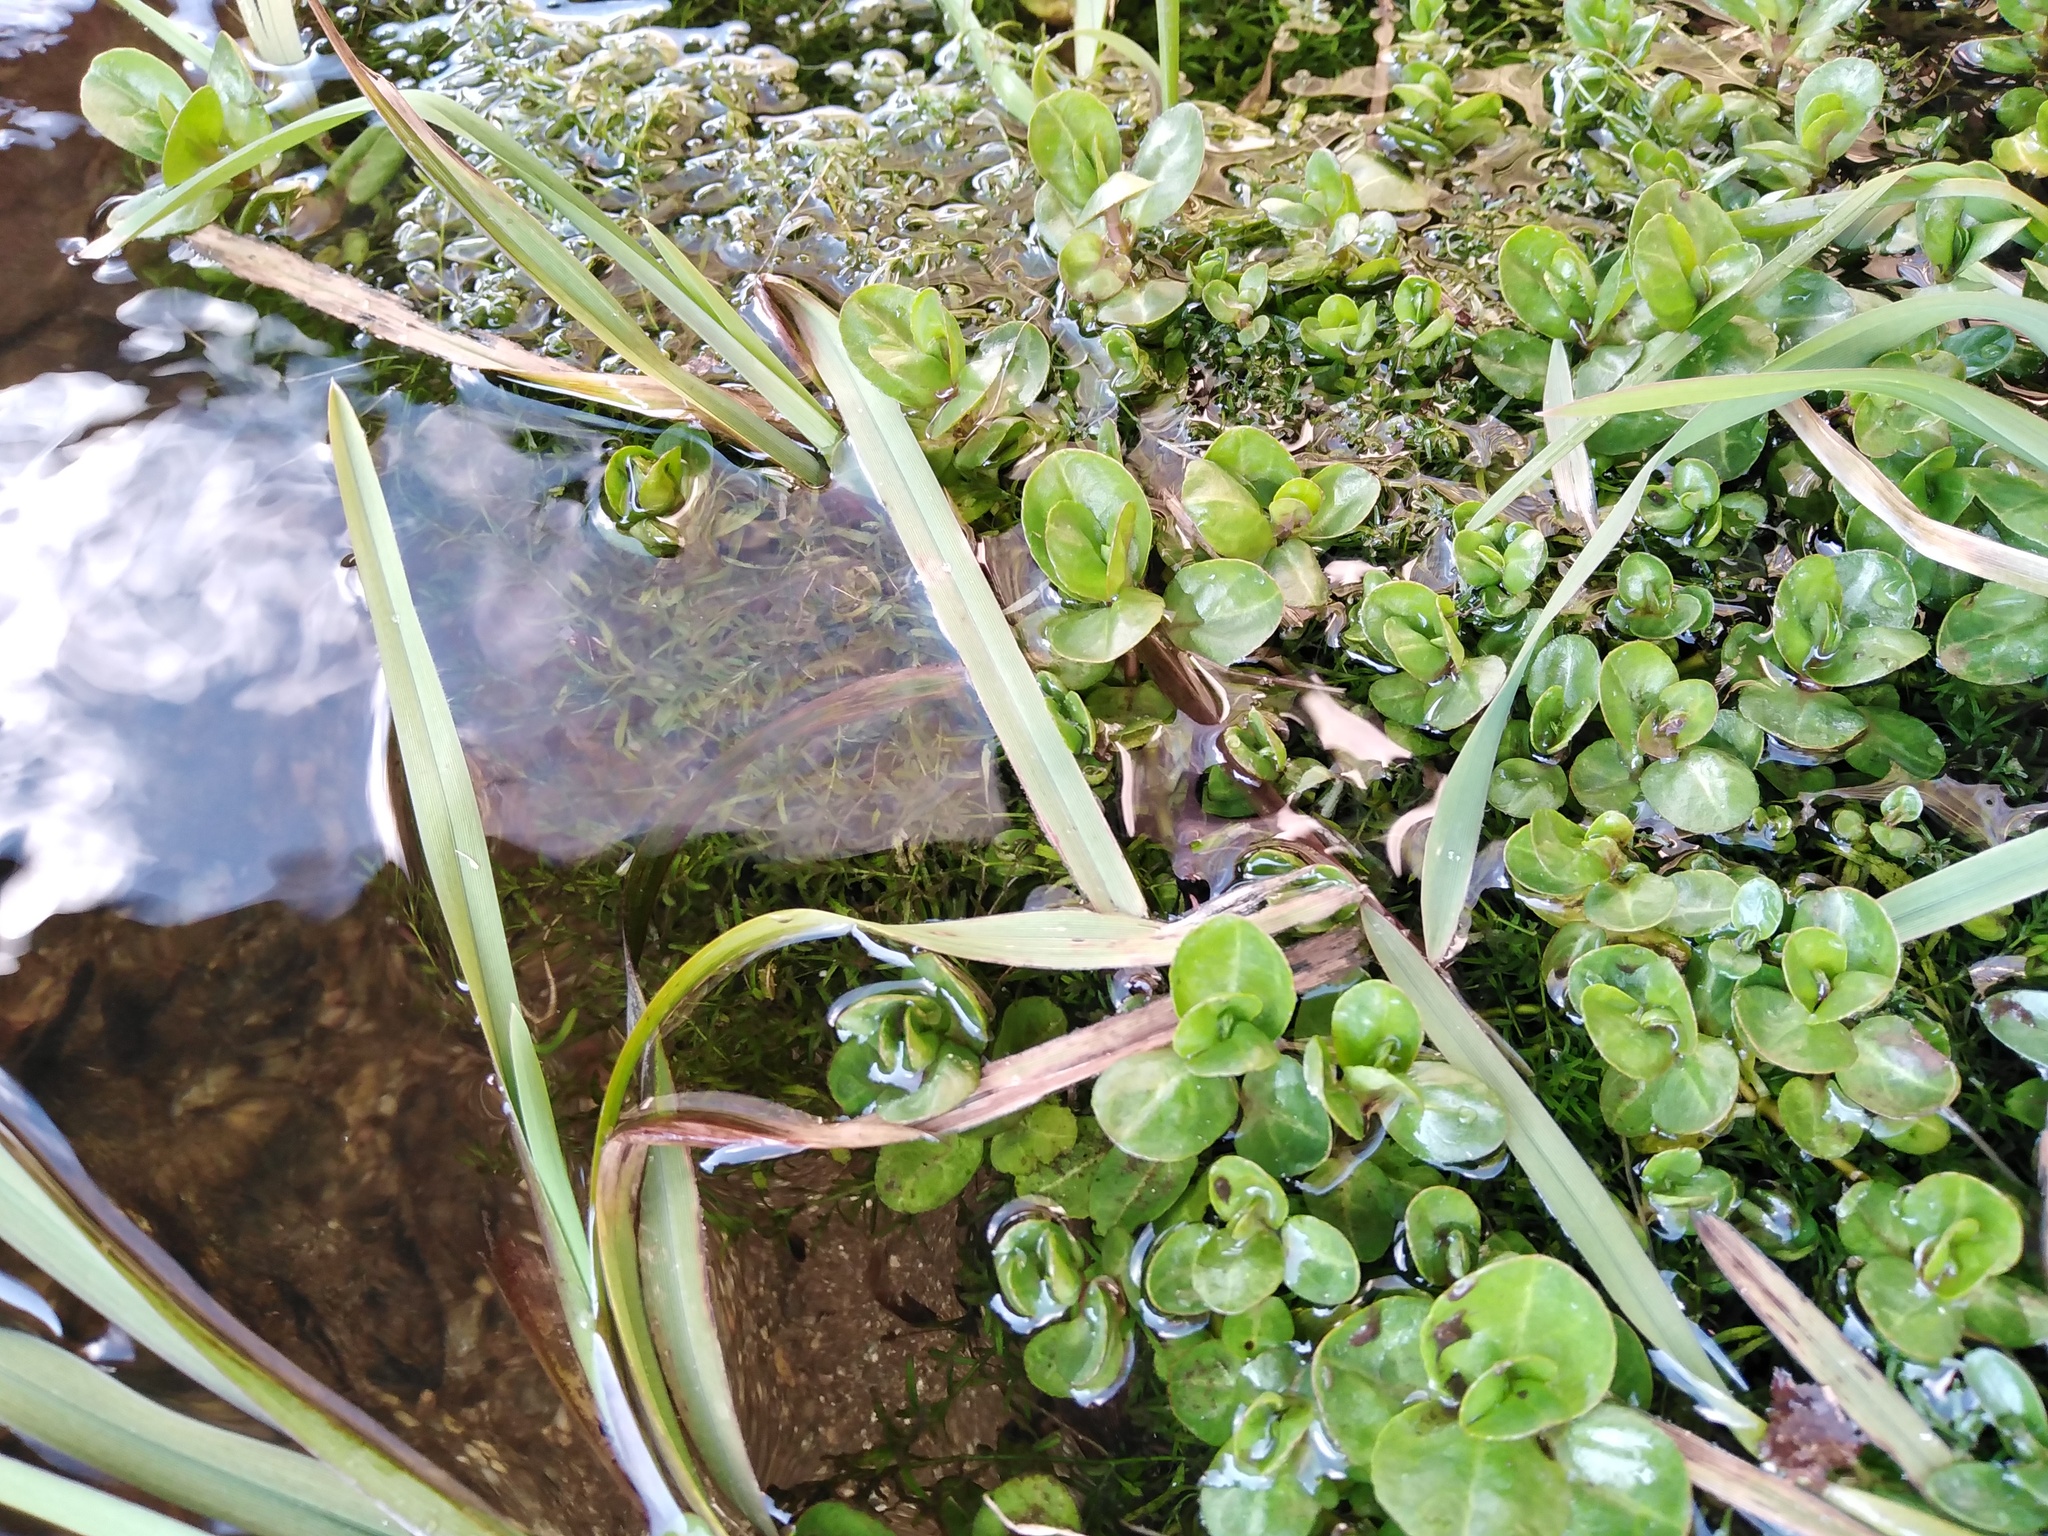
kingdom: Plantae
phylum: Tracheophyta
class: Magnoliopsida
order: Lamiales
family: Plantaginaceae
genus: Veronica
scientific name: Veronica beccabunga
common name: Brooklime
